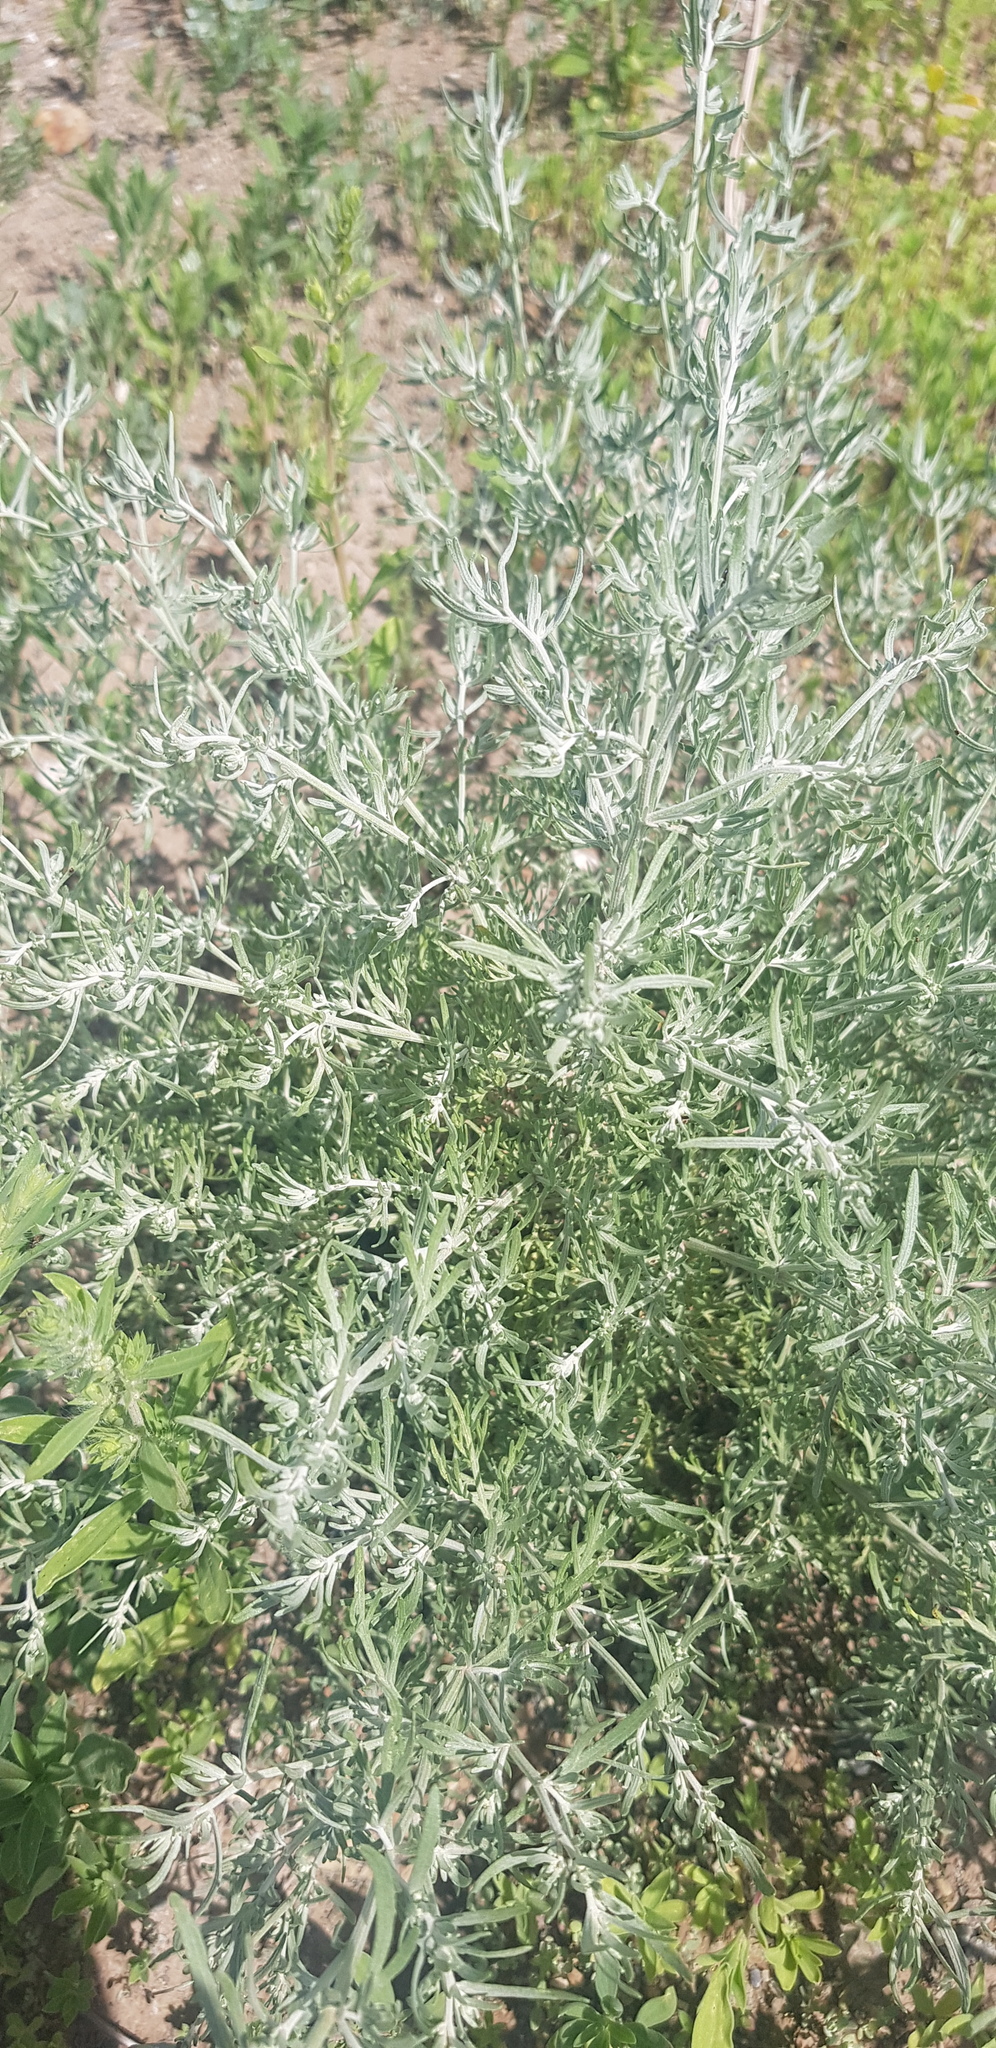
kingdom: Plantae
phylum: Tracheophyta
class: Magnoliopsida
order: Asterales
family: Asteraceae
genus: Artemisia
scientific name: Artemisia sieversiana
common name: Sieversian wormwood
